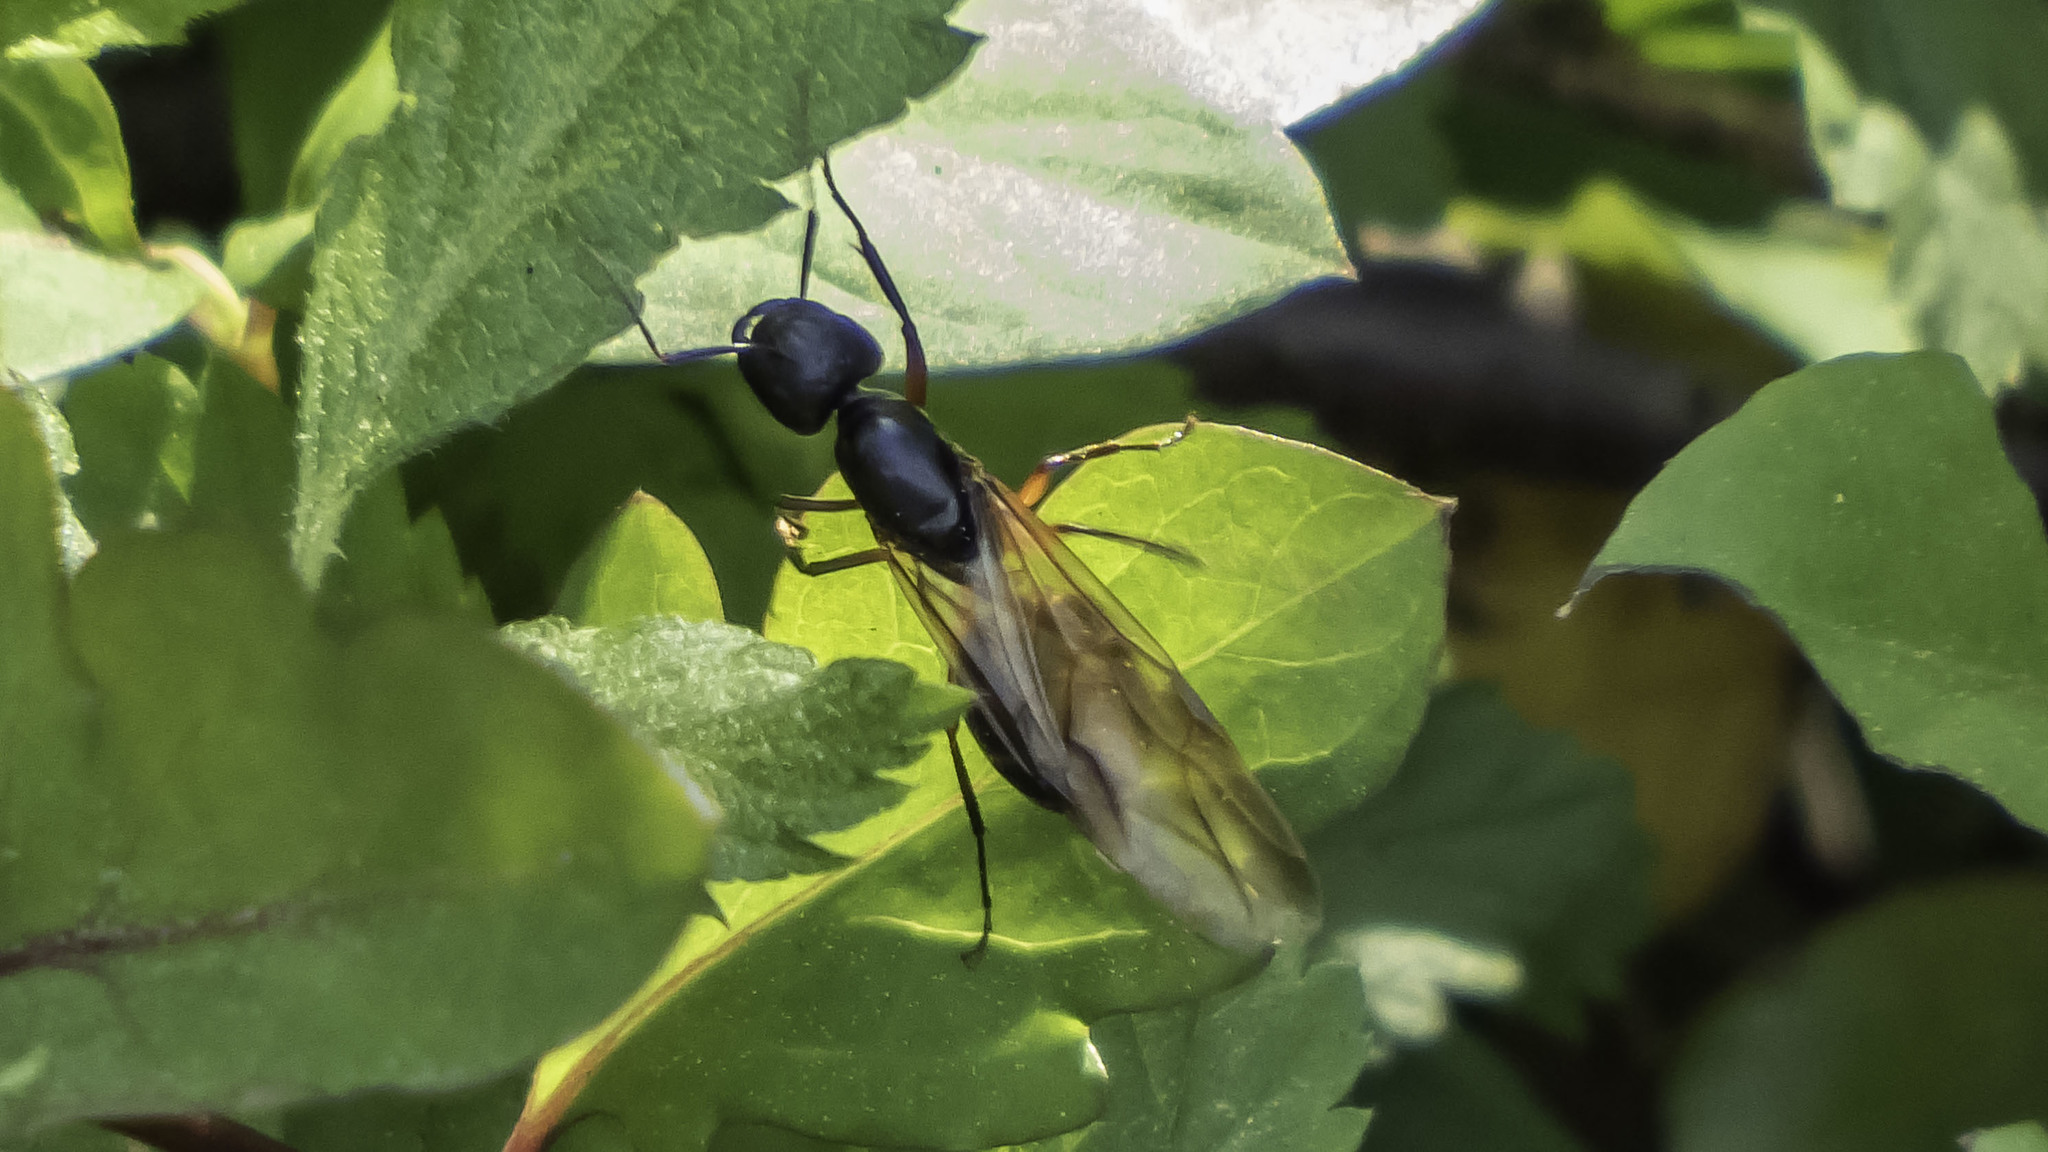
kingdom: Animalia
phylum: Arthropoda
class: Insecta
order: Hymenoptera
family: Formicidae
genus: Camponotus
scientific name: Camponotus pennsylvanicus
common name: Black carpenter ant
